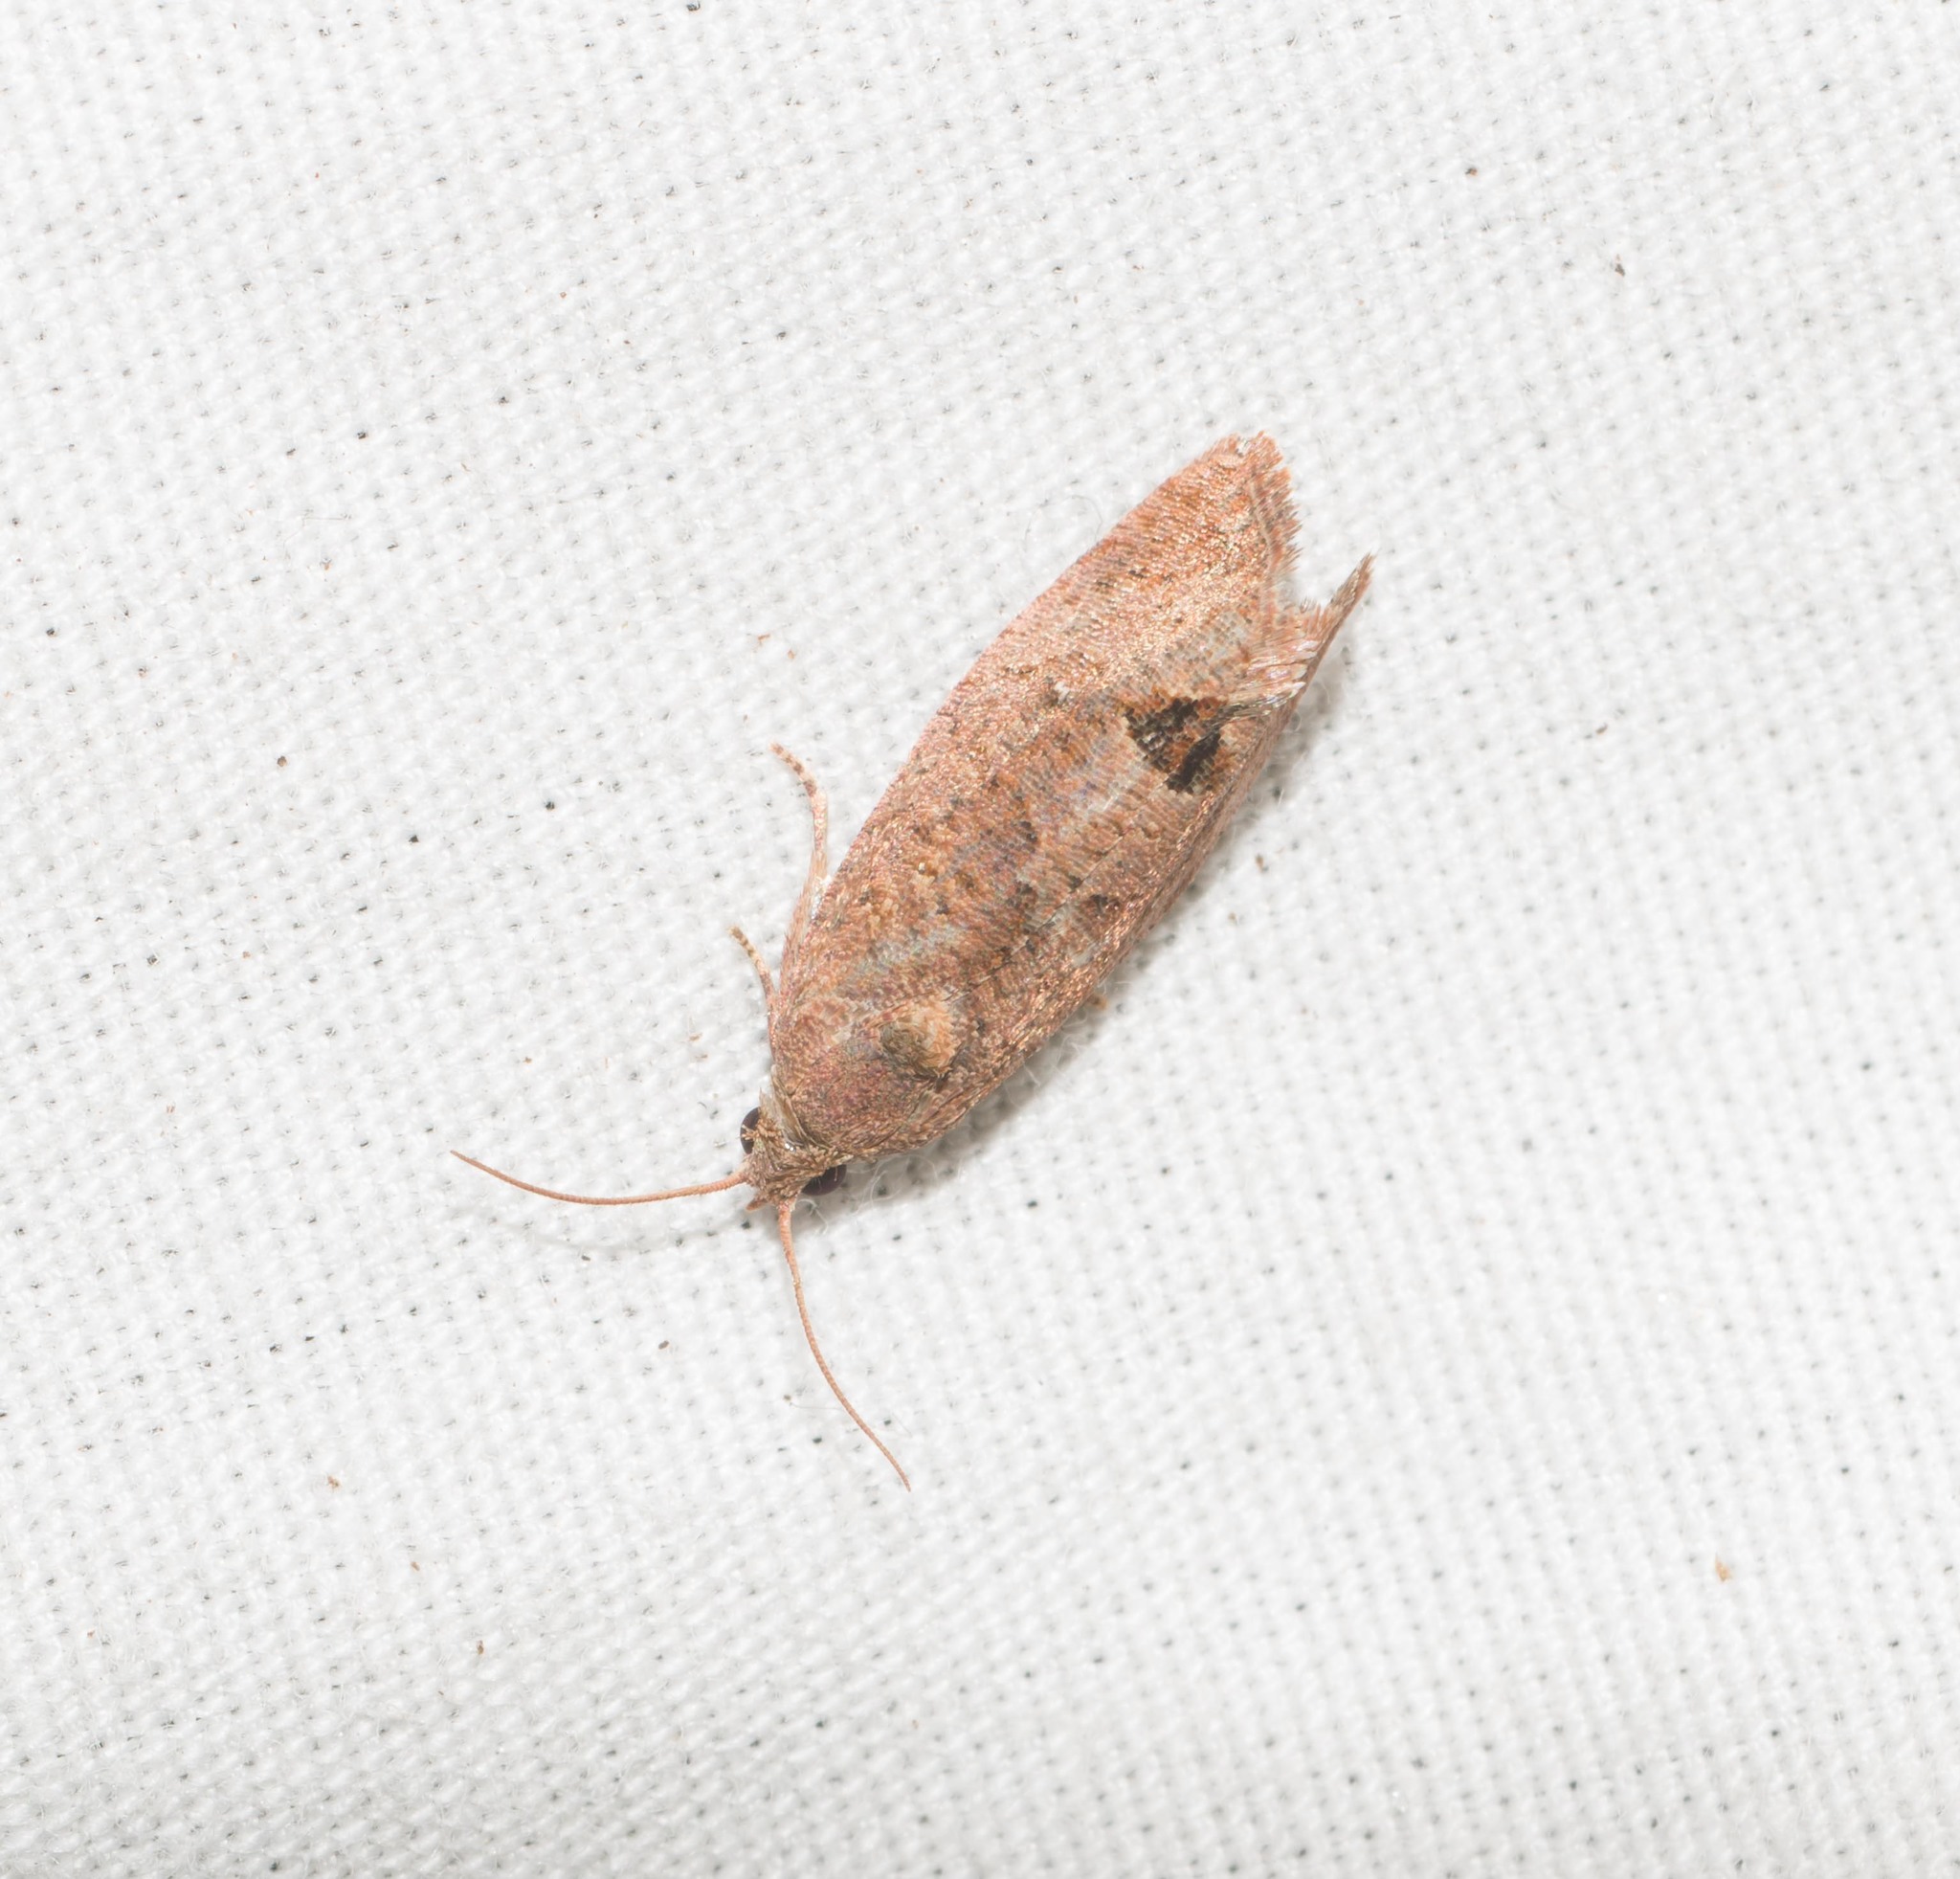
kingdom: Animalia
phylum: Arthropoda
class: Insecta
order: Lepidoptera
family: Tortricidae
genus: Cryptophlebia
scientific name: Cryptophlebia illepida
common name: Moth
